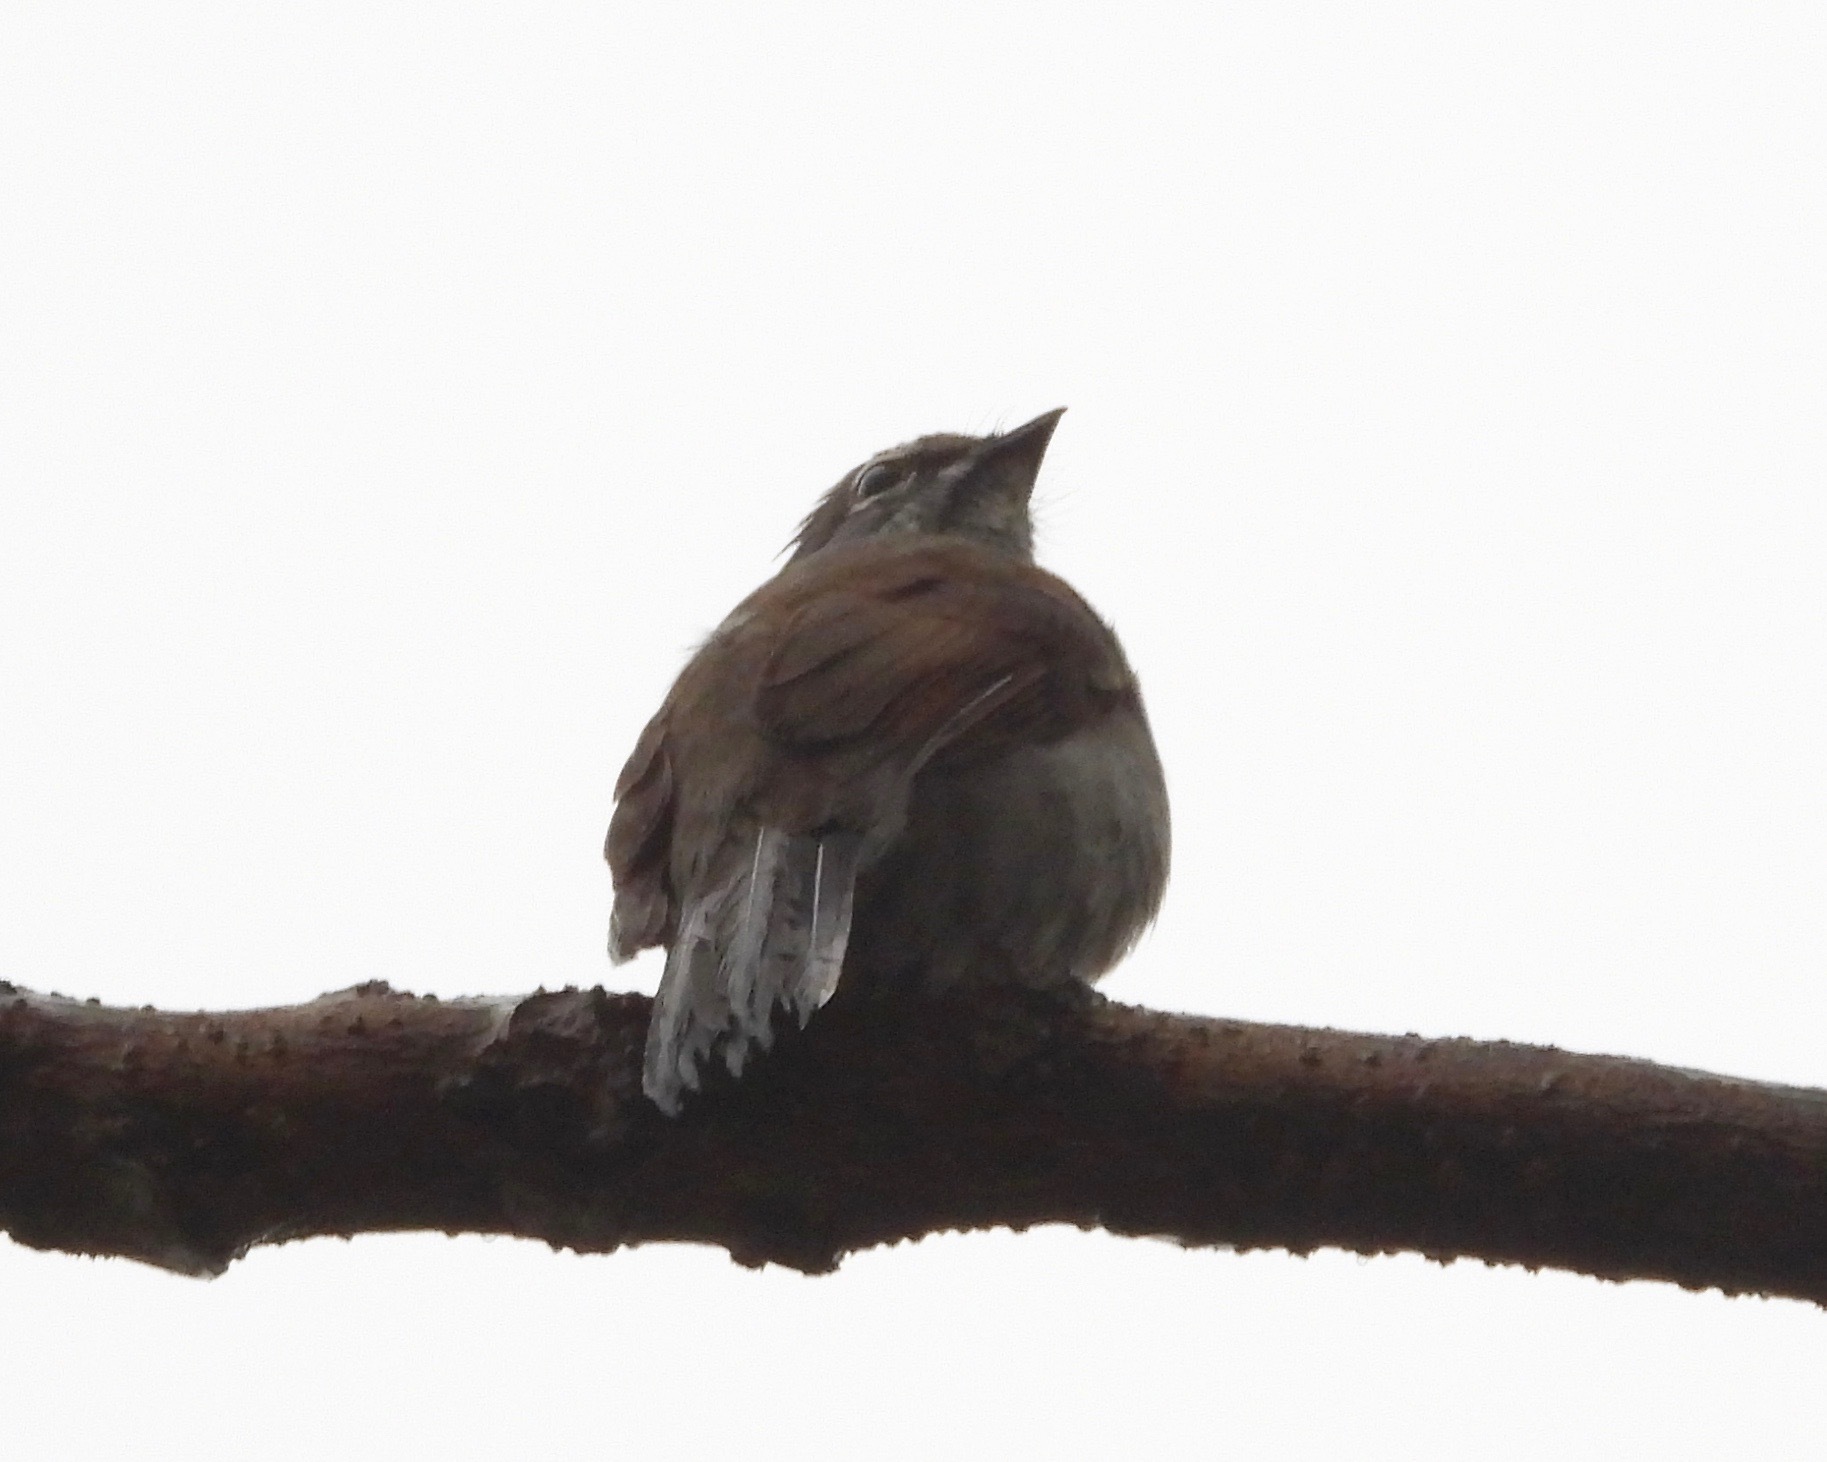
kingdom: Animalia
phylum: Chordata
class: Aves
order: Passeriformes
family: Turdidae
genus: Myadestes
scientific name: Myadestes occidentalis
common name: Brown-backed solitaire
